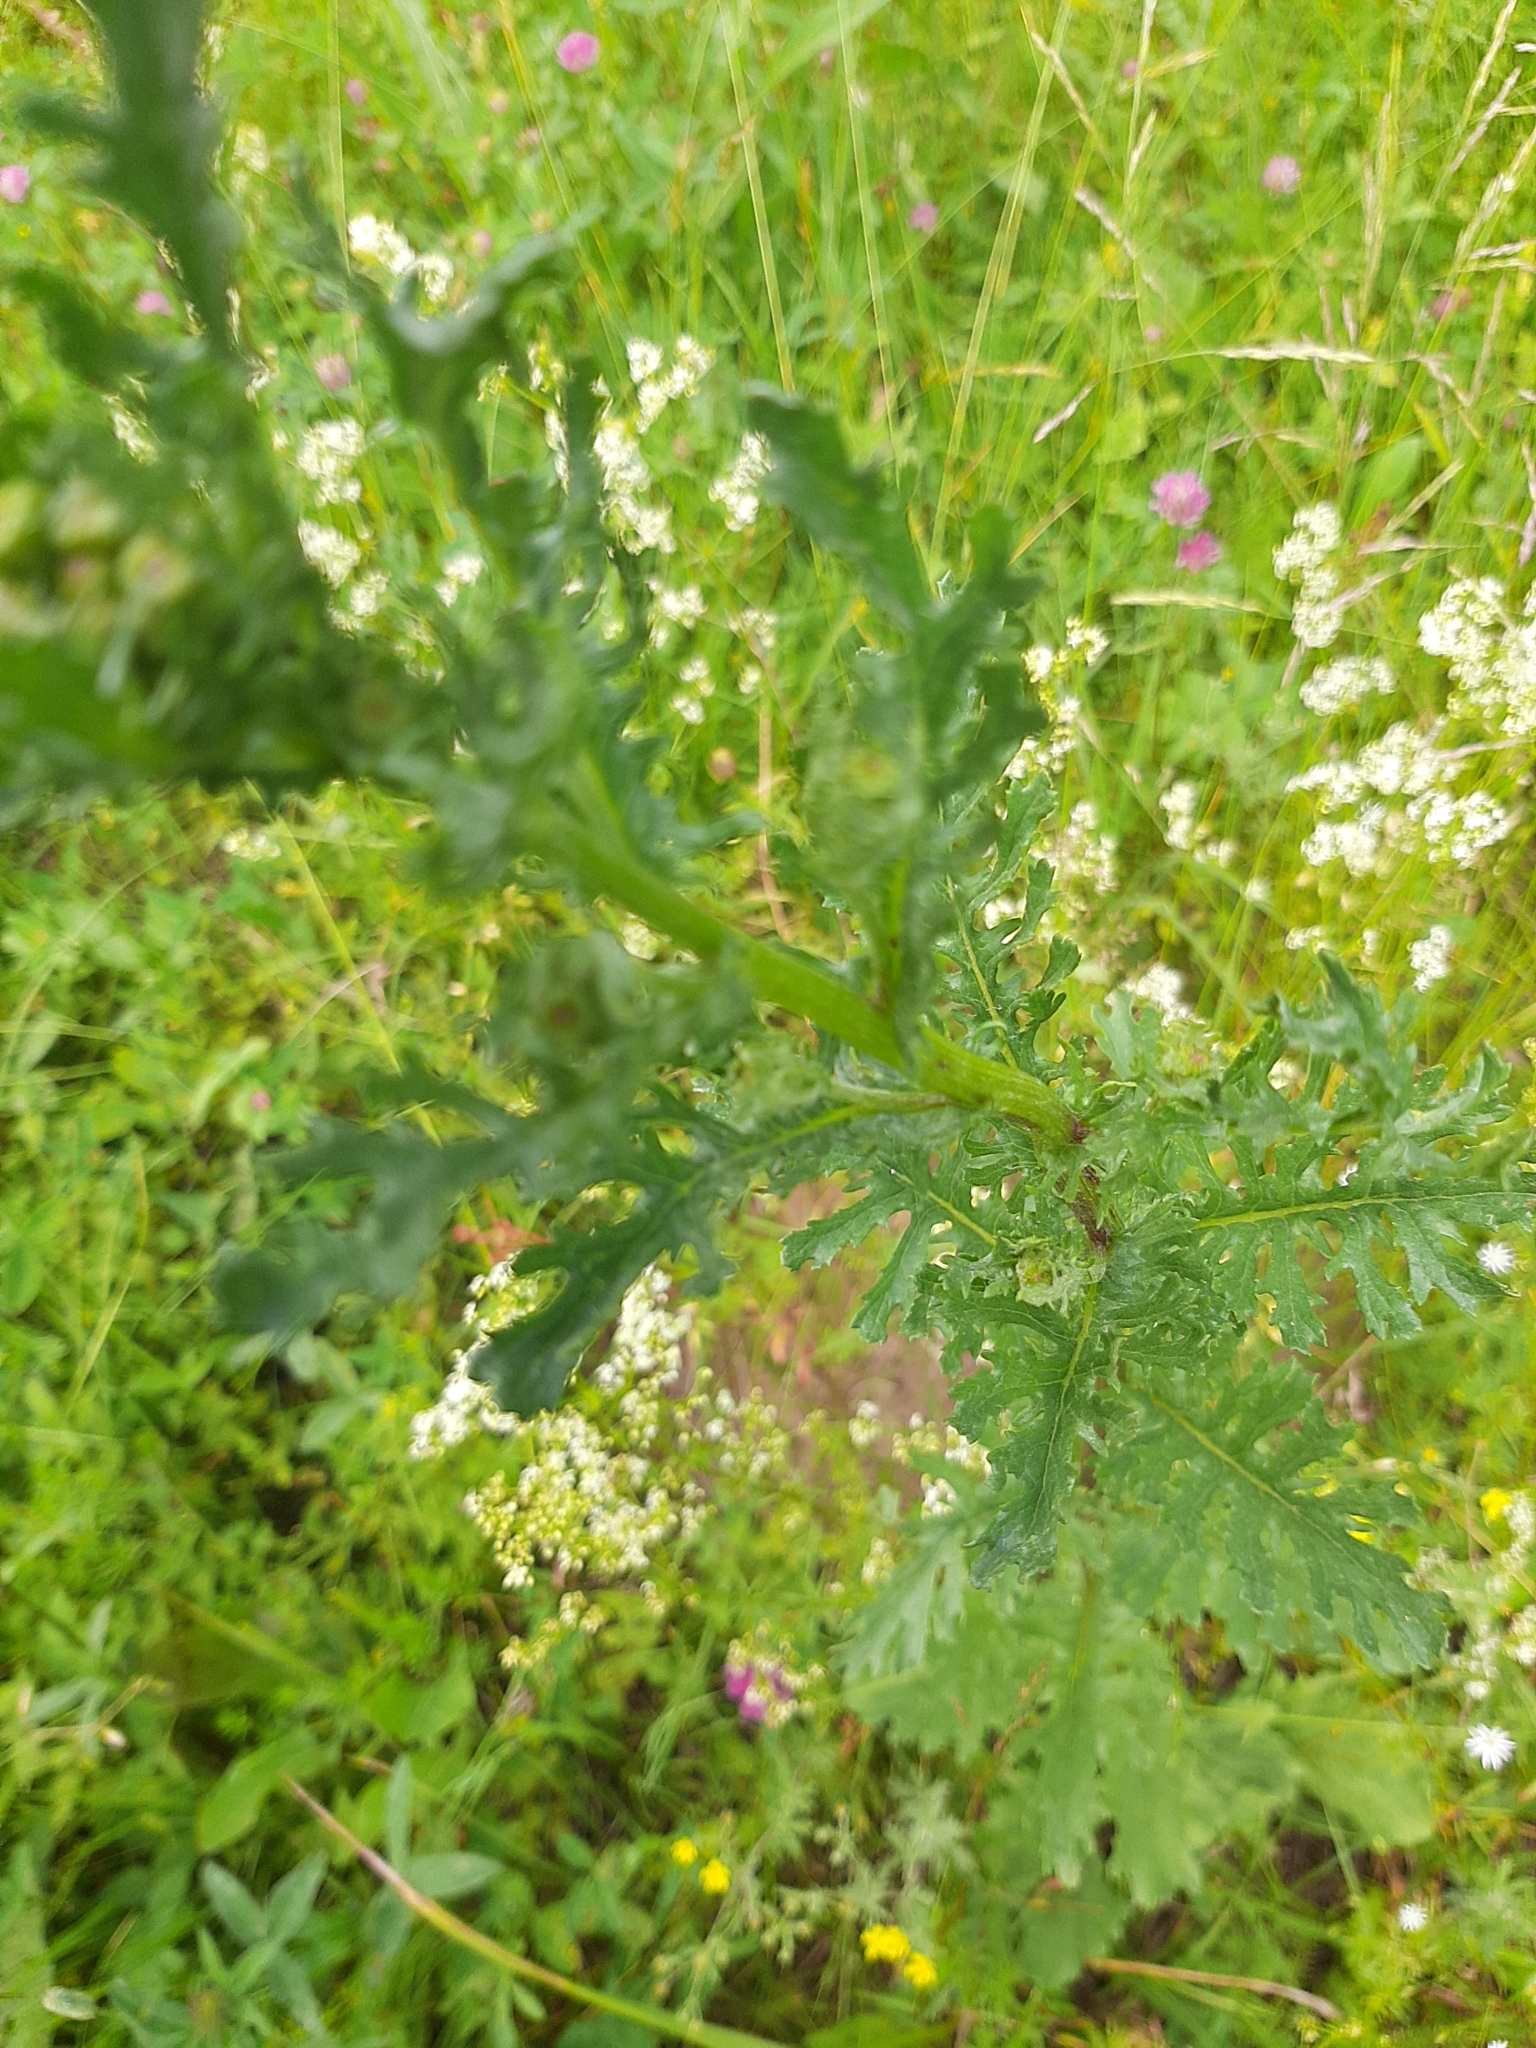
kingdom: Plantae
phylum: Tracheophyta
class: Magnoliopsida
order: Asterales
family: Asteraceae
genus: Jacobaea
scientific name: Jacobaea vulgaris
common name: Stinking willie
